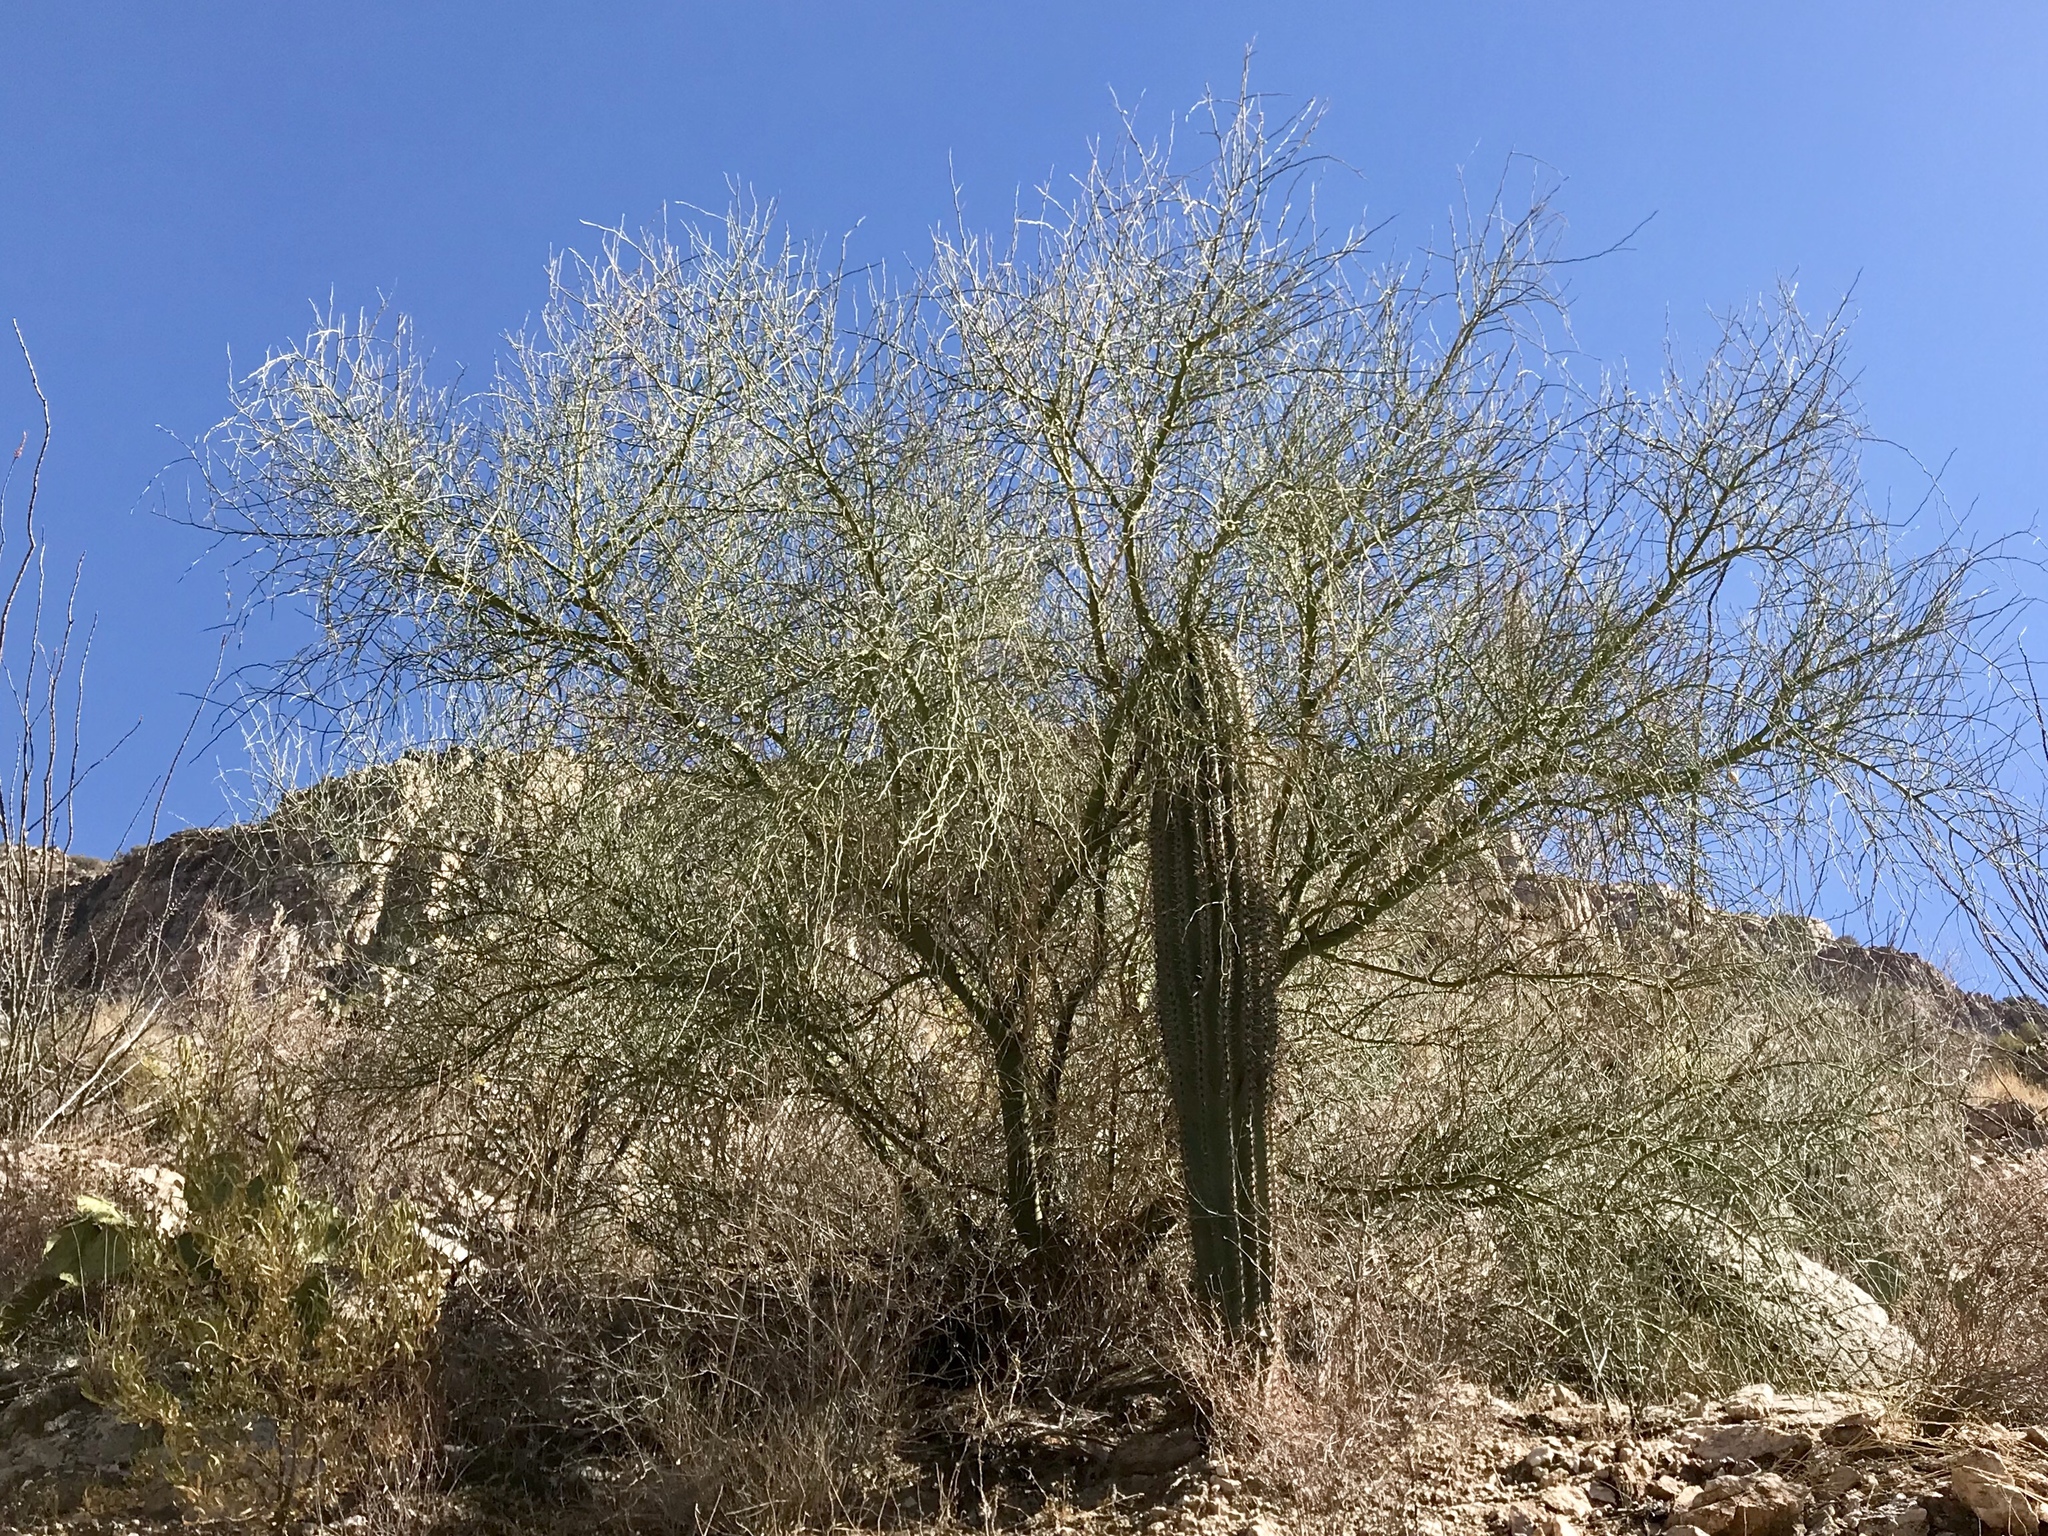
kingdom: Plantae
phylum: Tracheophyta
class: Magnoliopsida
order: Fabales
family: Fabaceae
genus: Parkinsonia
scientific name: Parkinsonia microphylla
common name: Yellow paloverde
